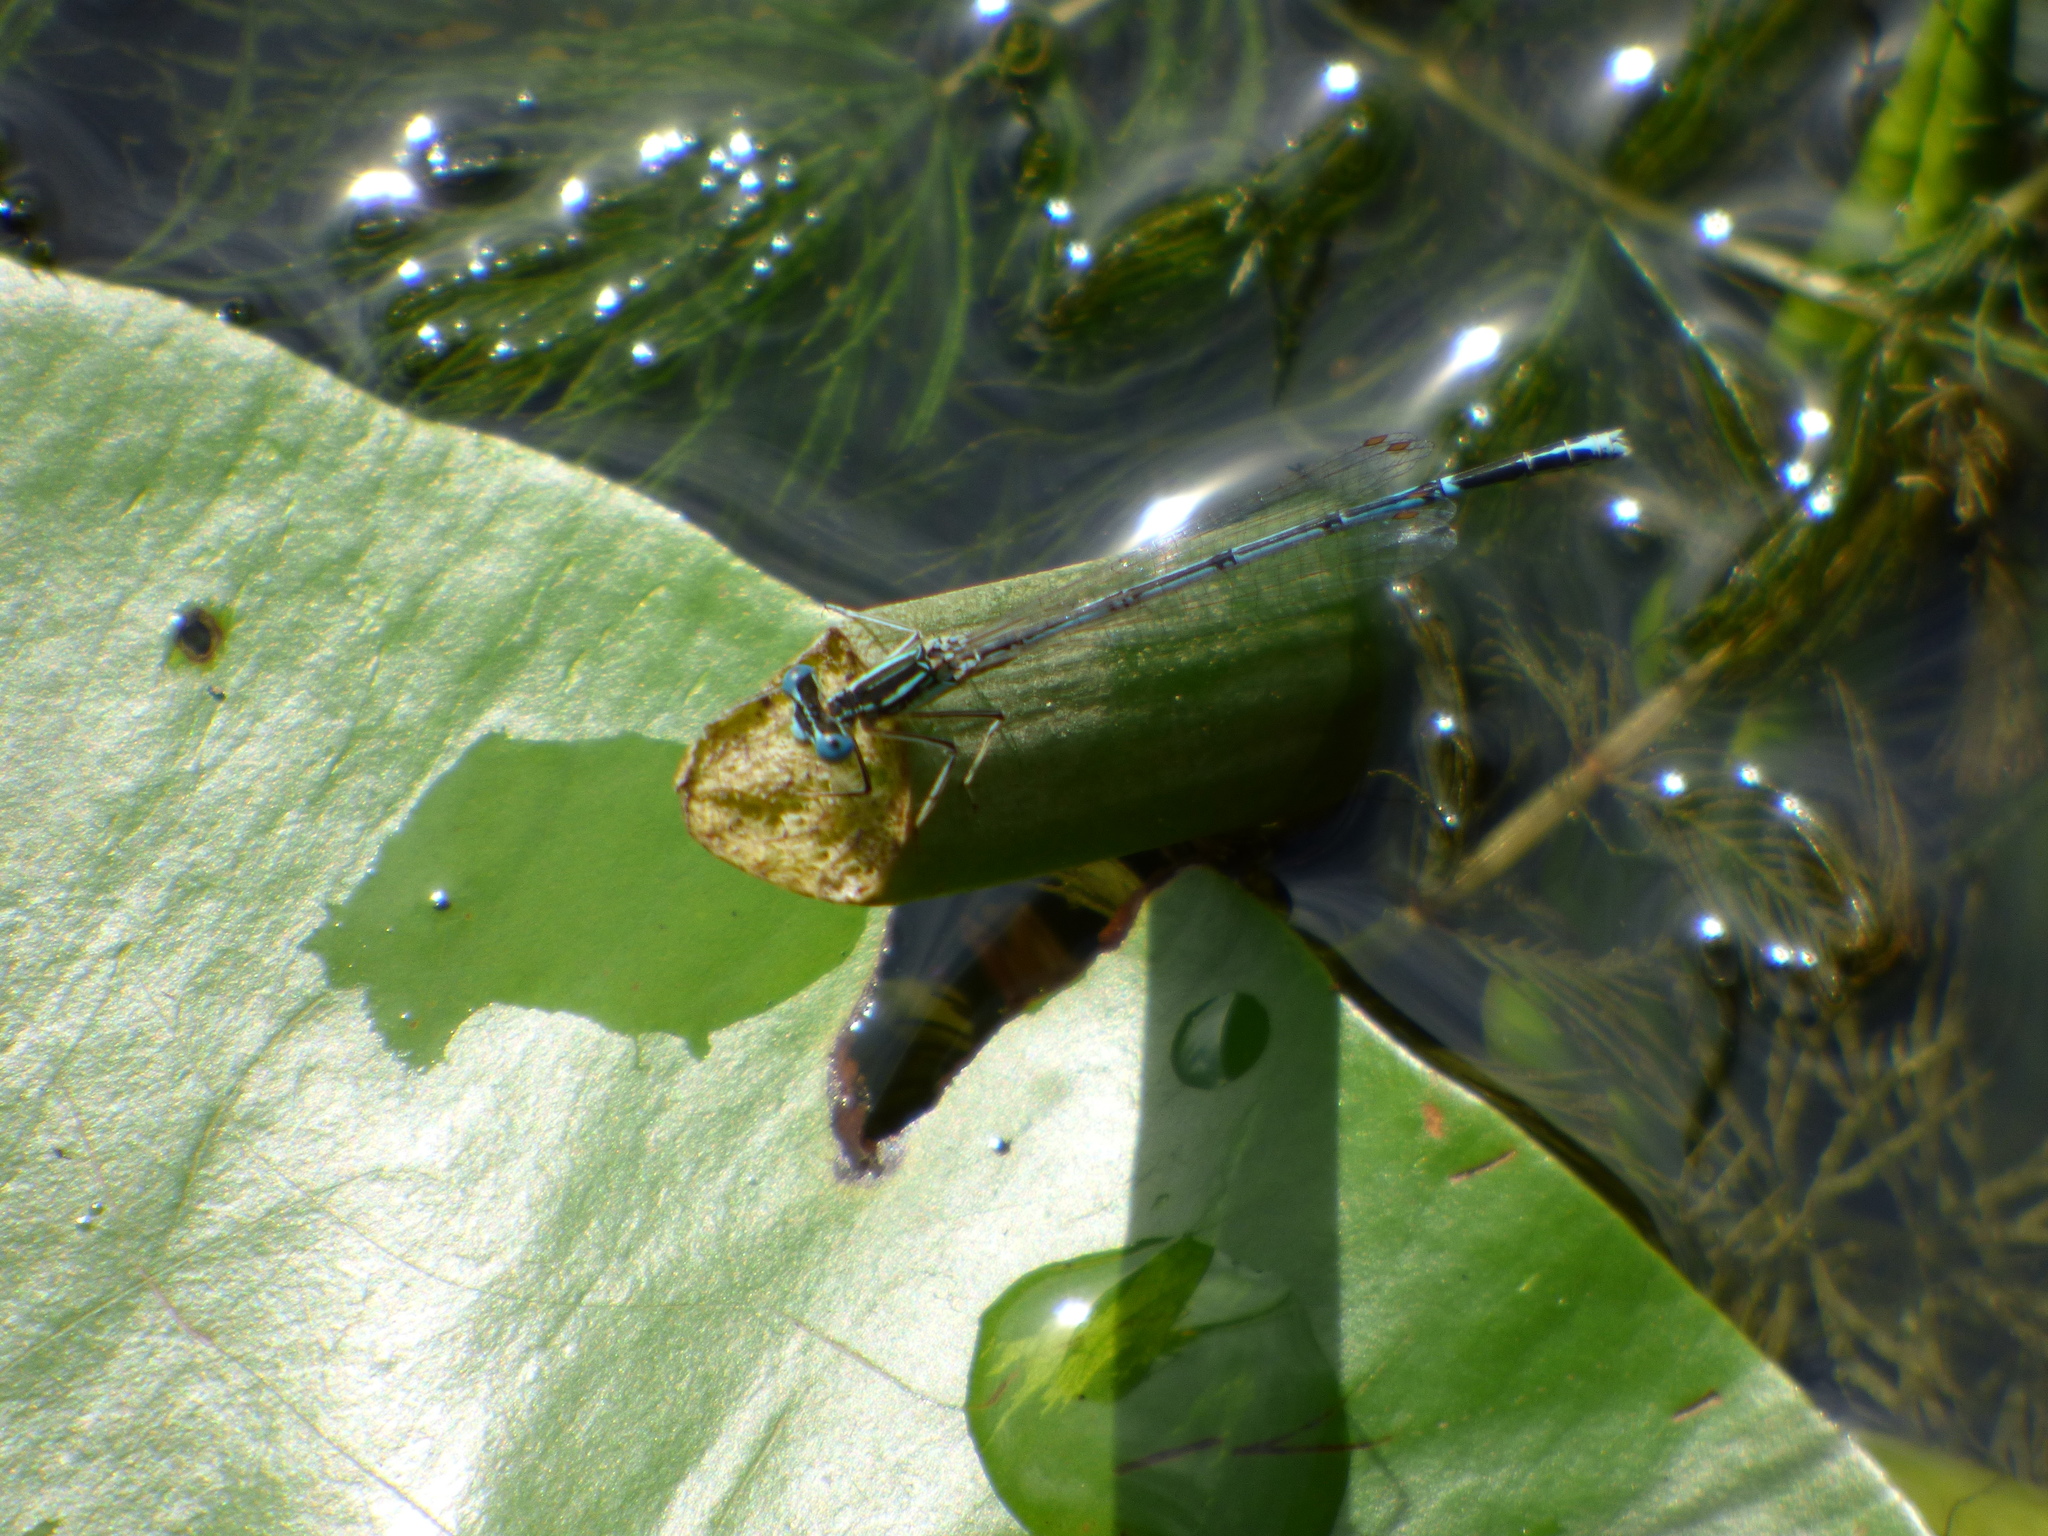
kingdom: Animalia
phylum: Arthropoda
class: Insecta
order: Odonata
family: Platycnemididae
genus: Platycnemis
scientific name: Platycnemis pennipes
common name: White-legged damselfly
